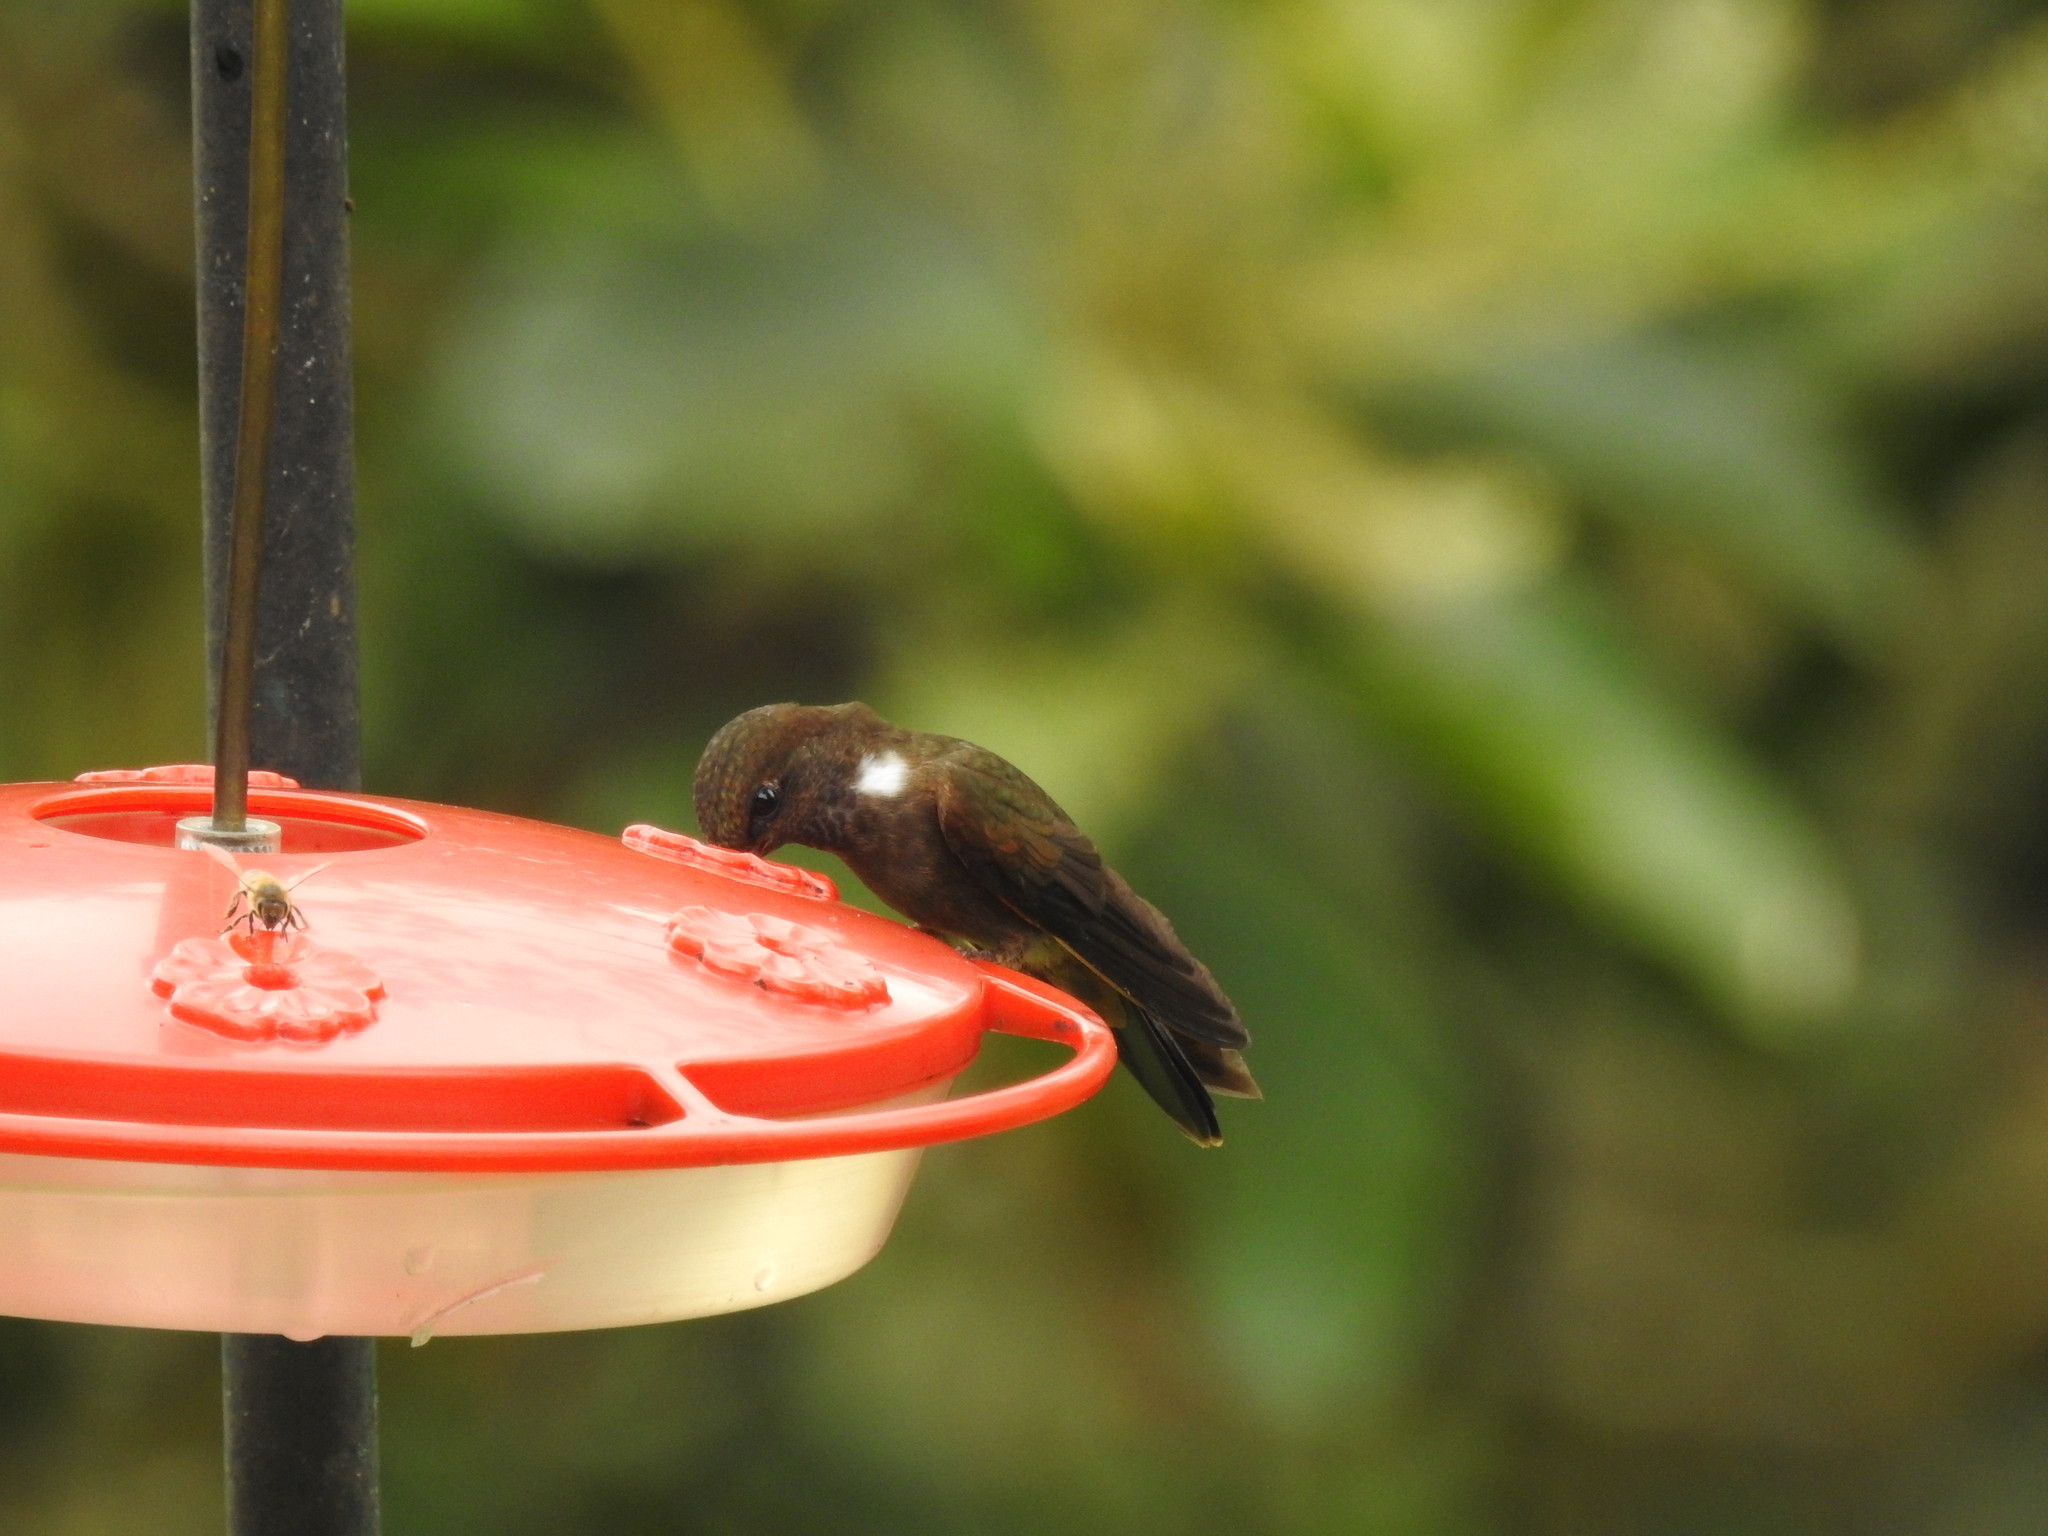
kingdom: Animalia
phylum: Chordata
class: Aves
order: Apodiformes
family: Trochilidae
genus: Coeligena
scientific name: Coeligena wilsoni
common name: Brown inca
